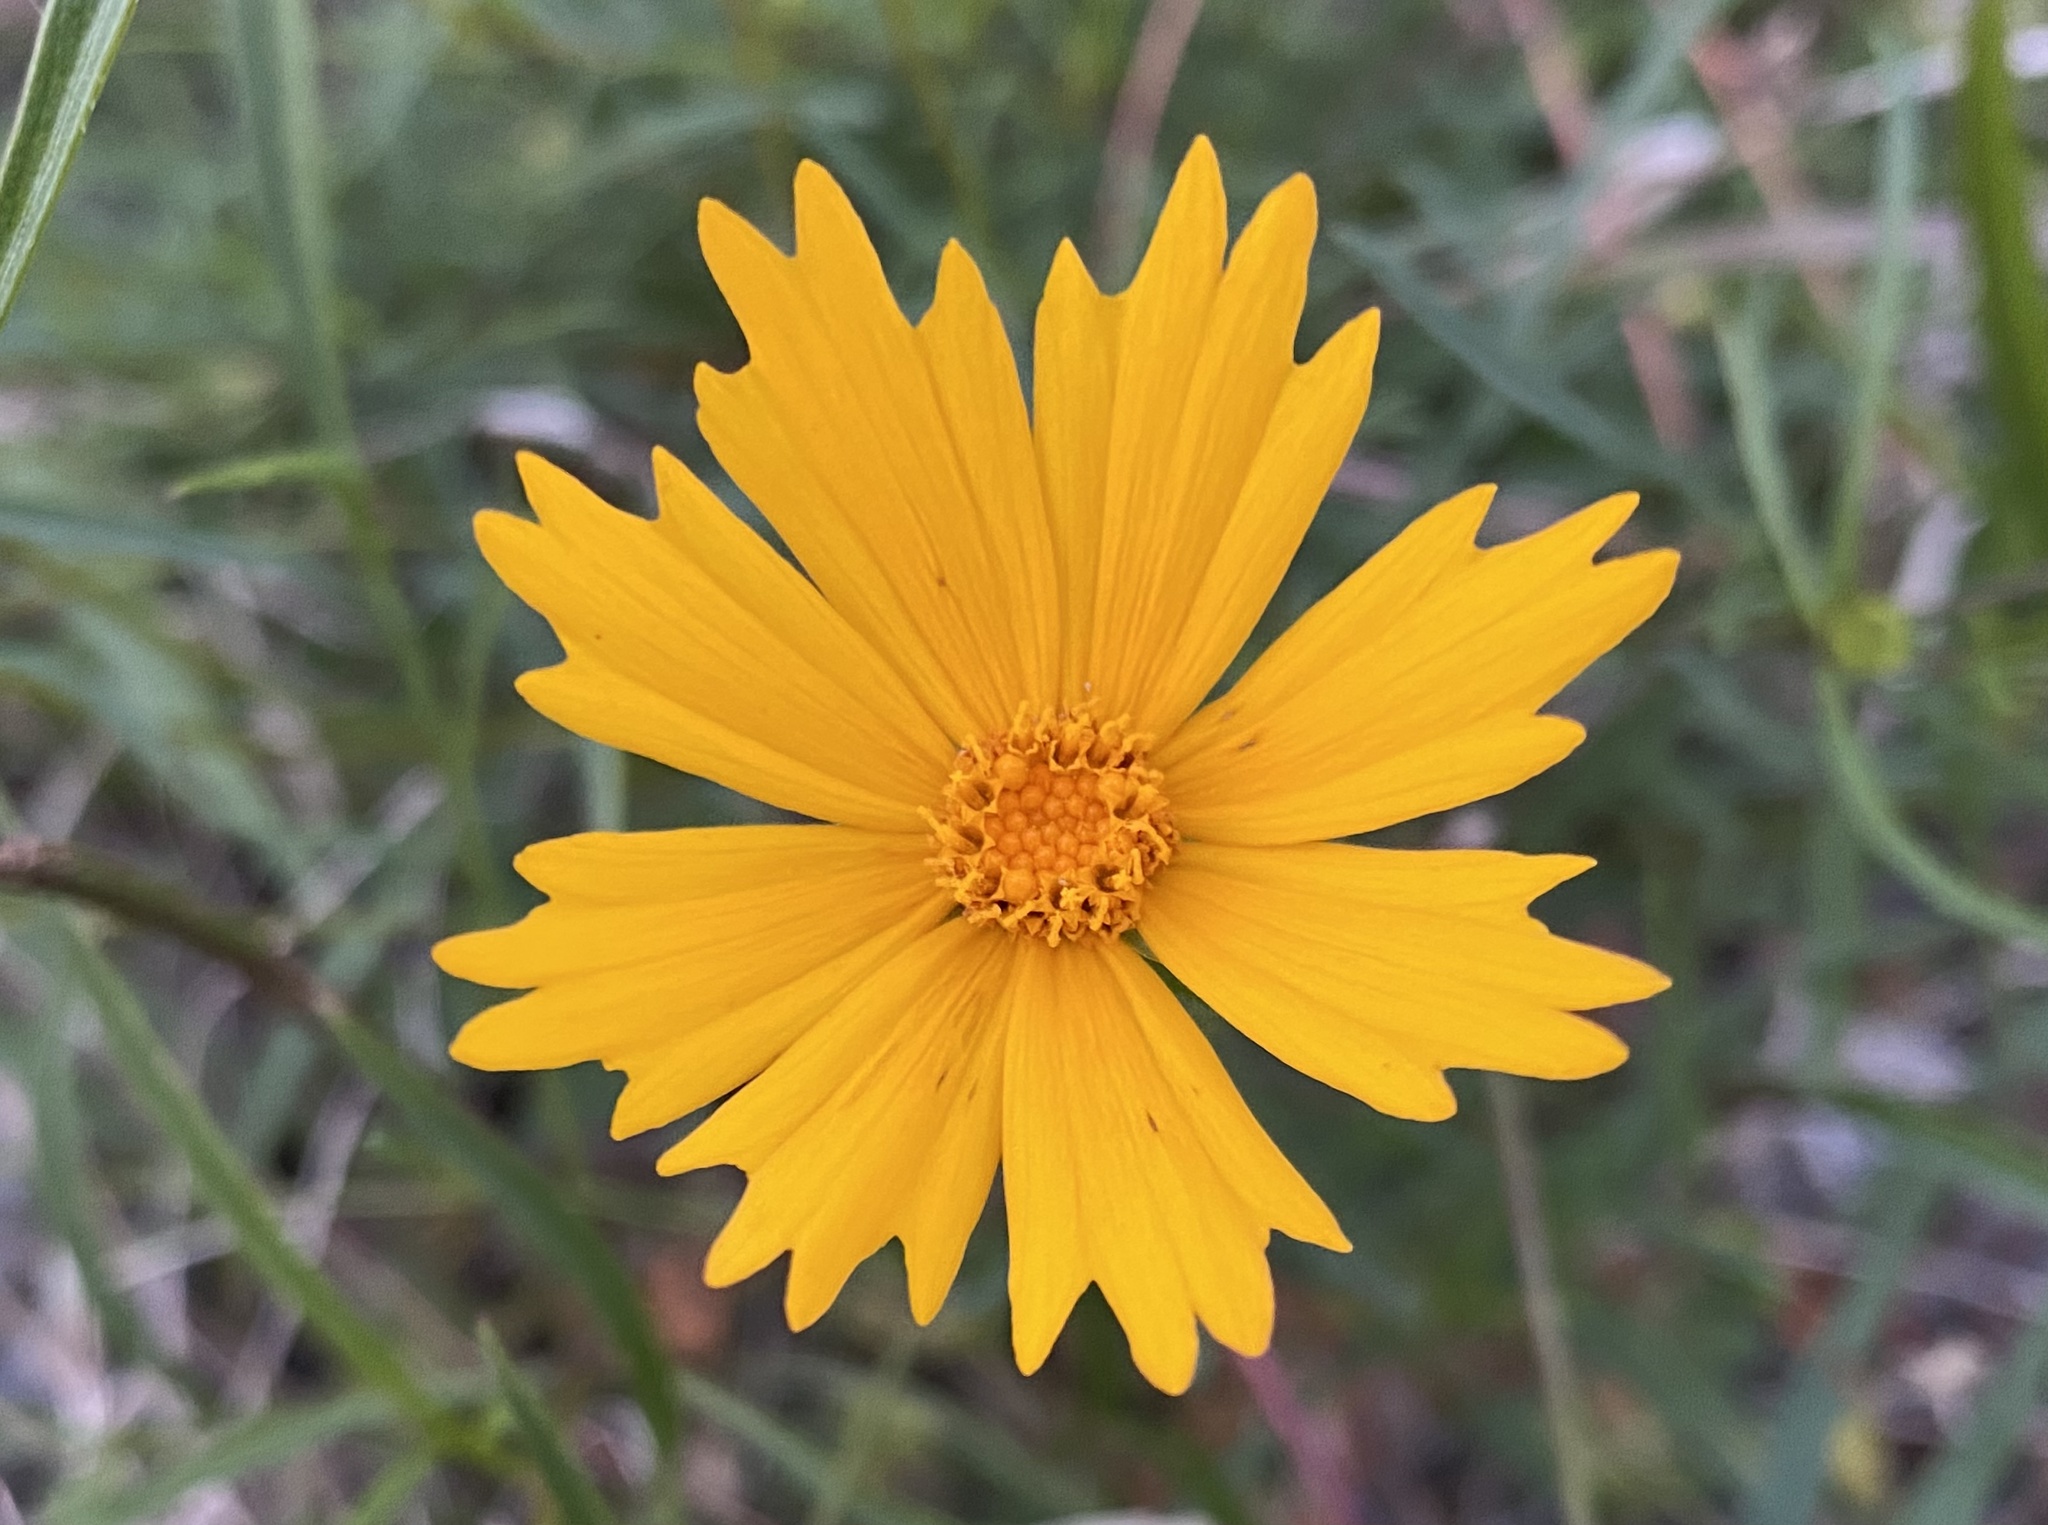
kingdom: Plantae
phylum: Tracheophyta
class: Magnoliopsida
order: Asterales
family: Asteraceae
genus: Coreopsis
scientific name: Coreopsis lanceolata
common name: Garden coreopsis
